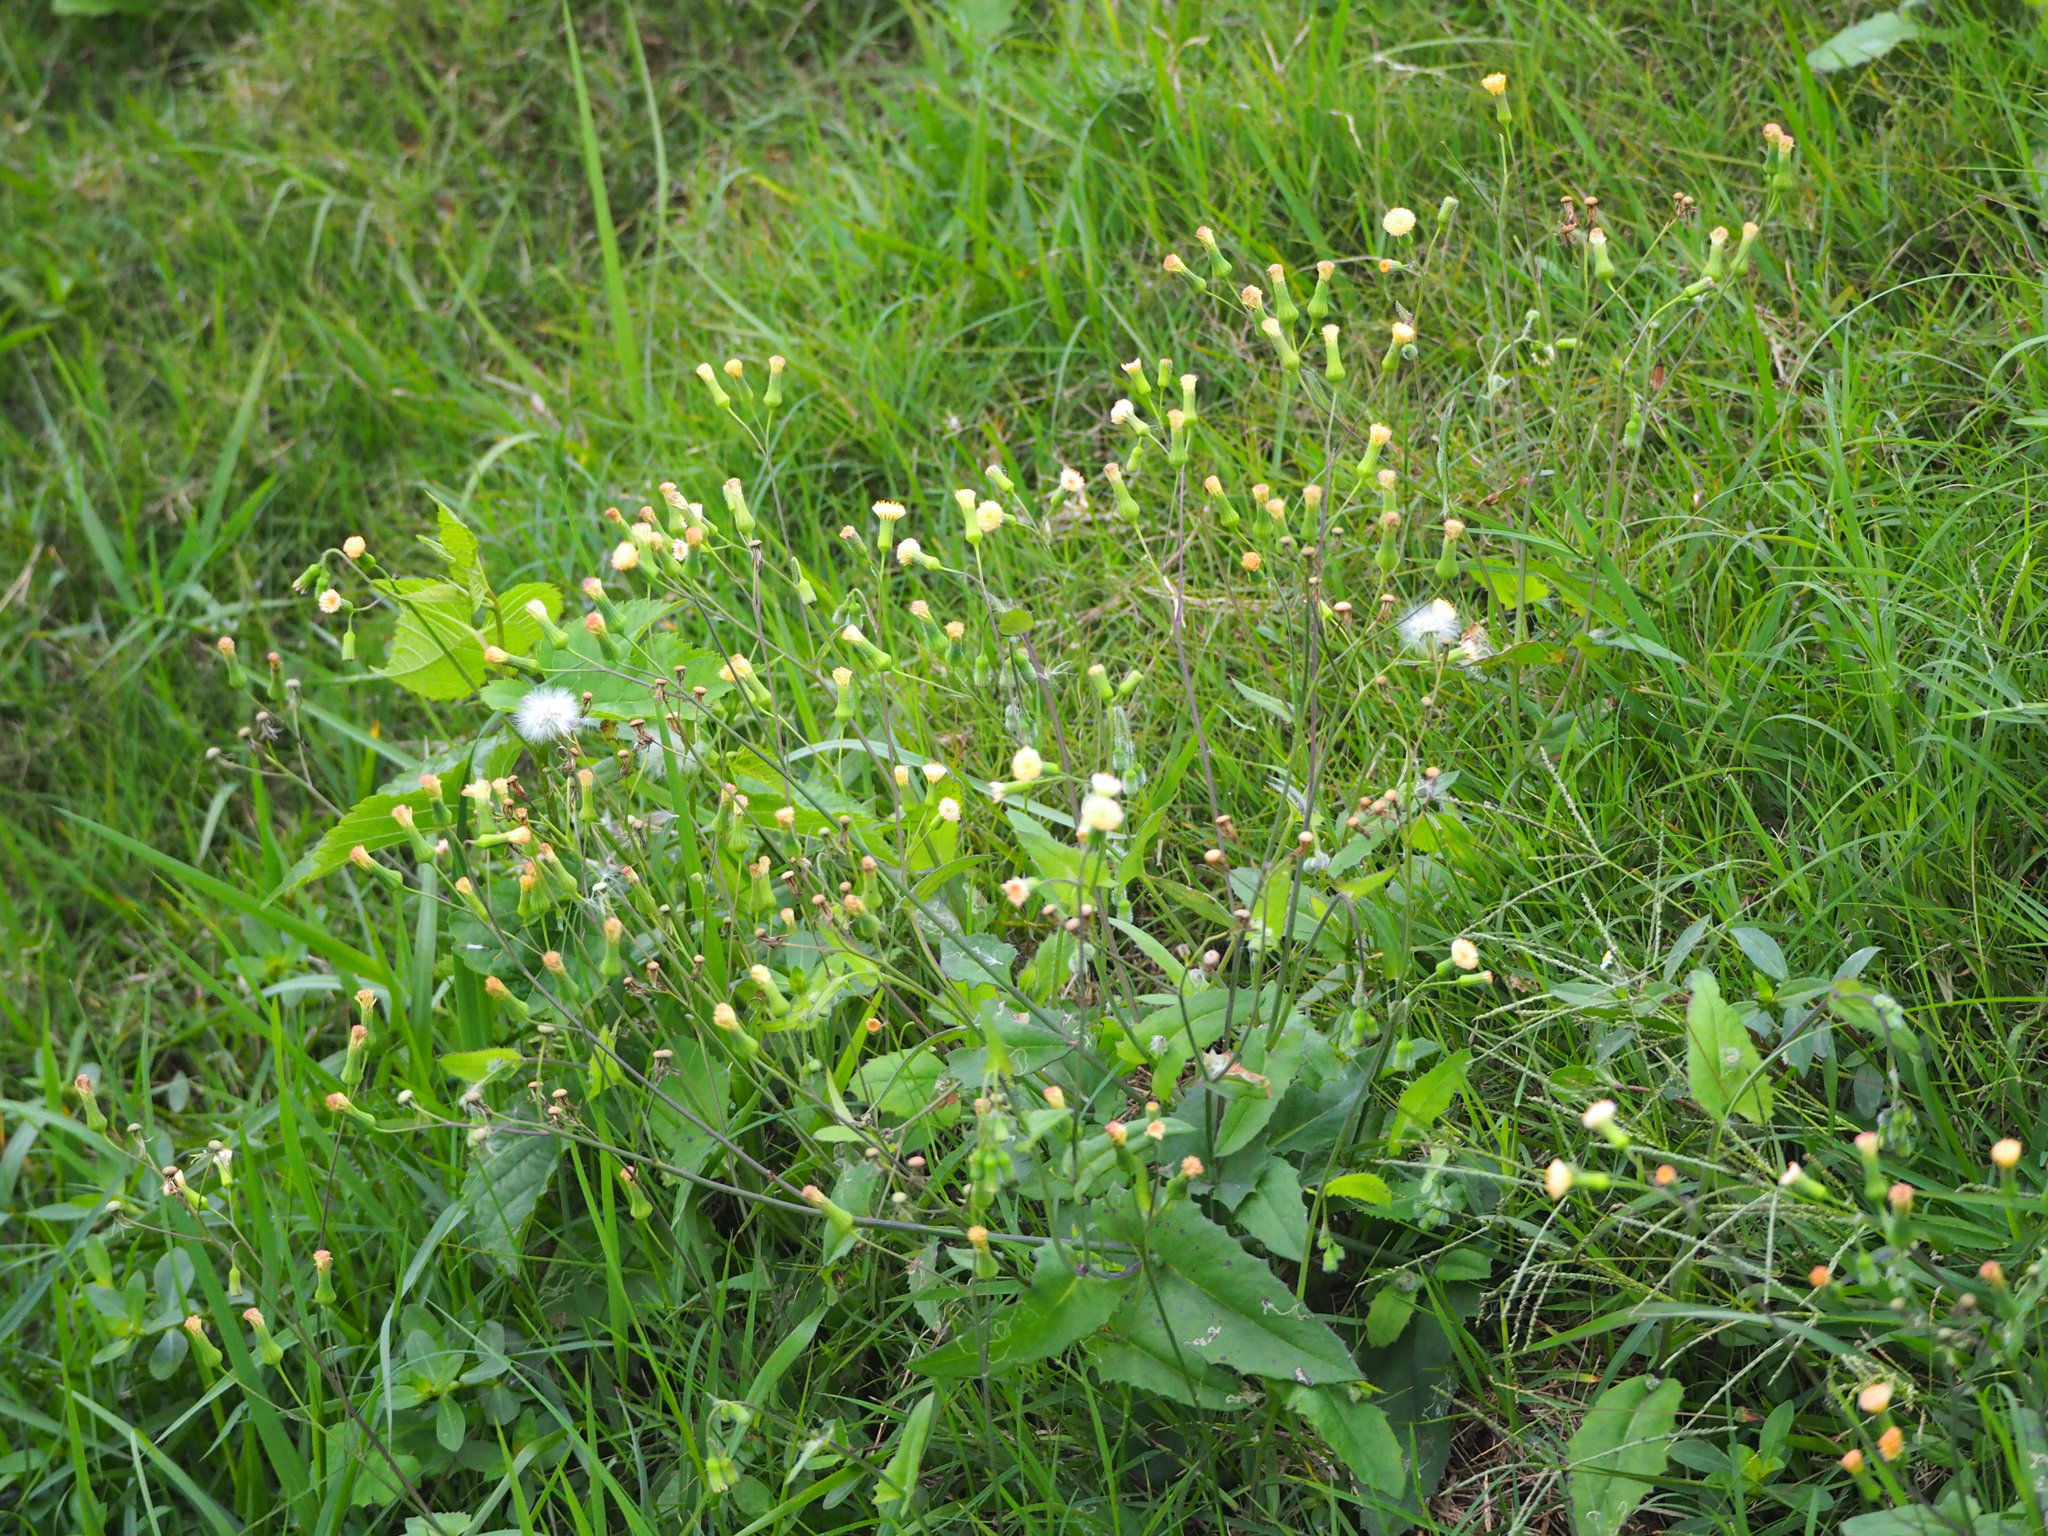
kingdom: Plantae
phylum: Tracheophyta
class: Magnoliopsida
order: Asterales
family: Asteraceae
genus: Emilia
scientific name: Emilia praetermissa
